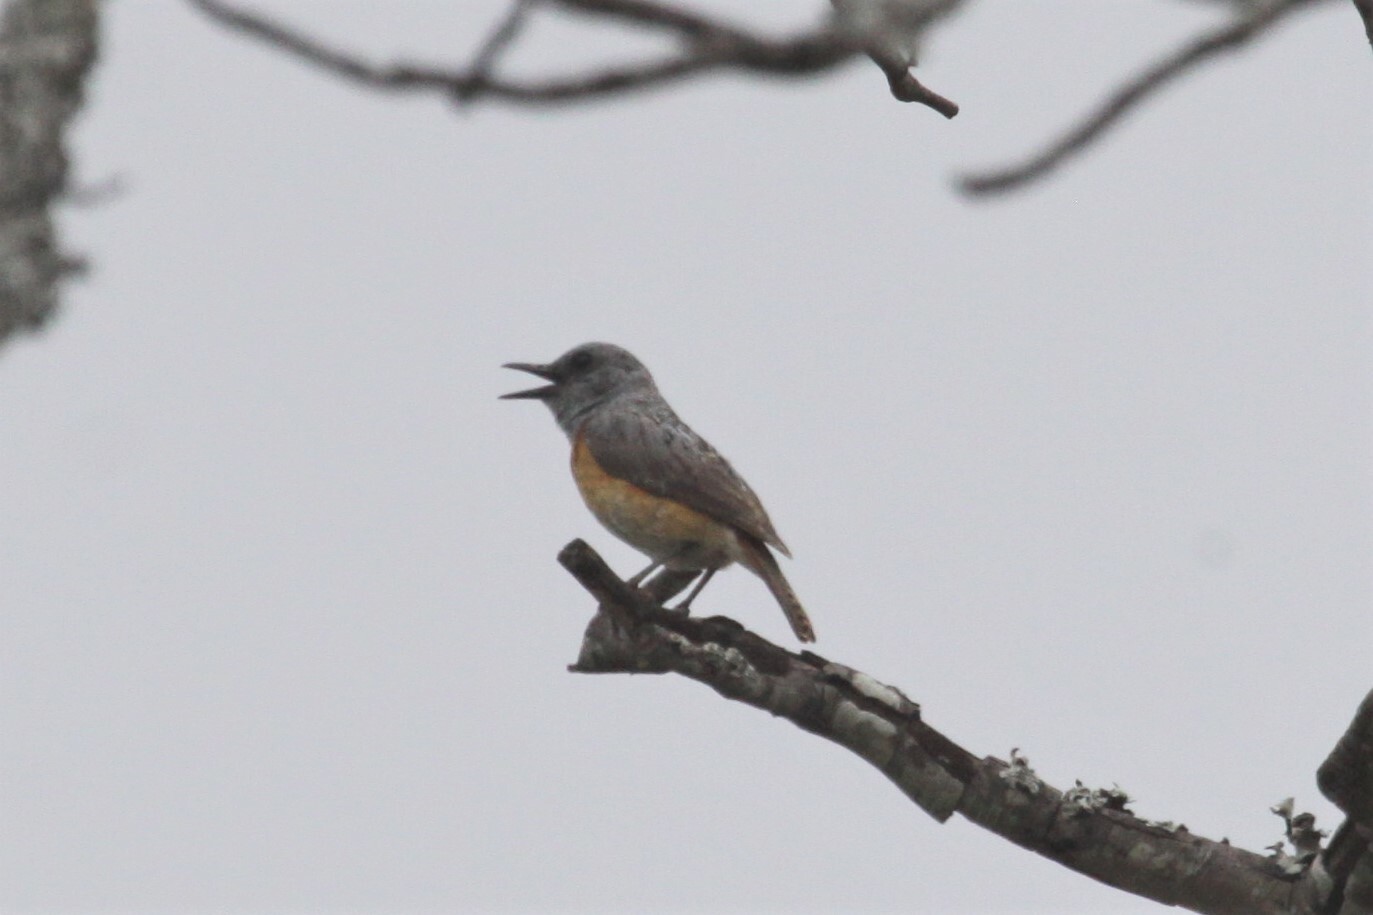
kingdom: Animalia
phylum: Chordata
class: Aves
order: Passeriformes
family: Muscicapidae
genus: Monticola
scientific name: Monticola angolensis
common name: Miombo rock thrush
